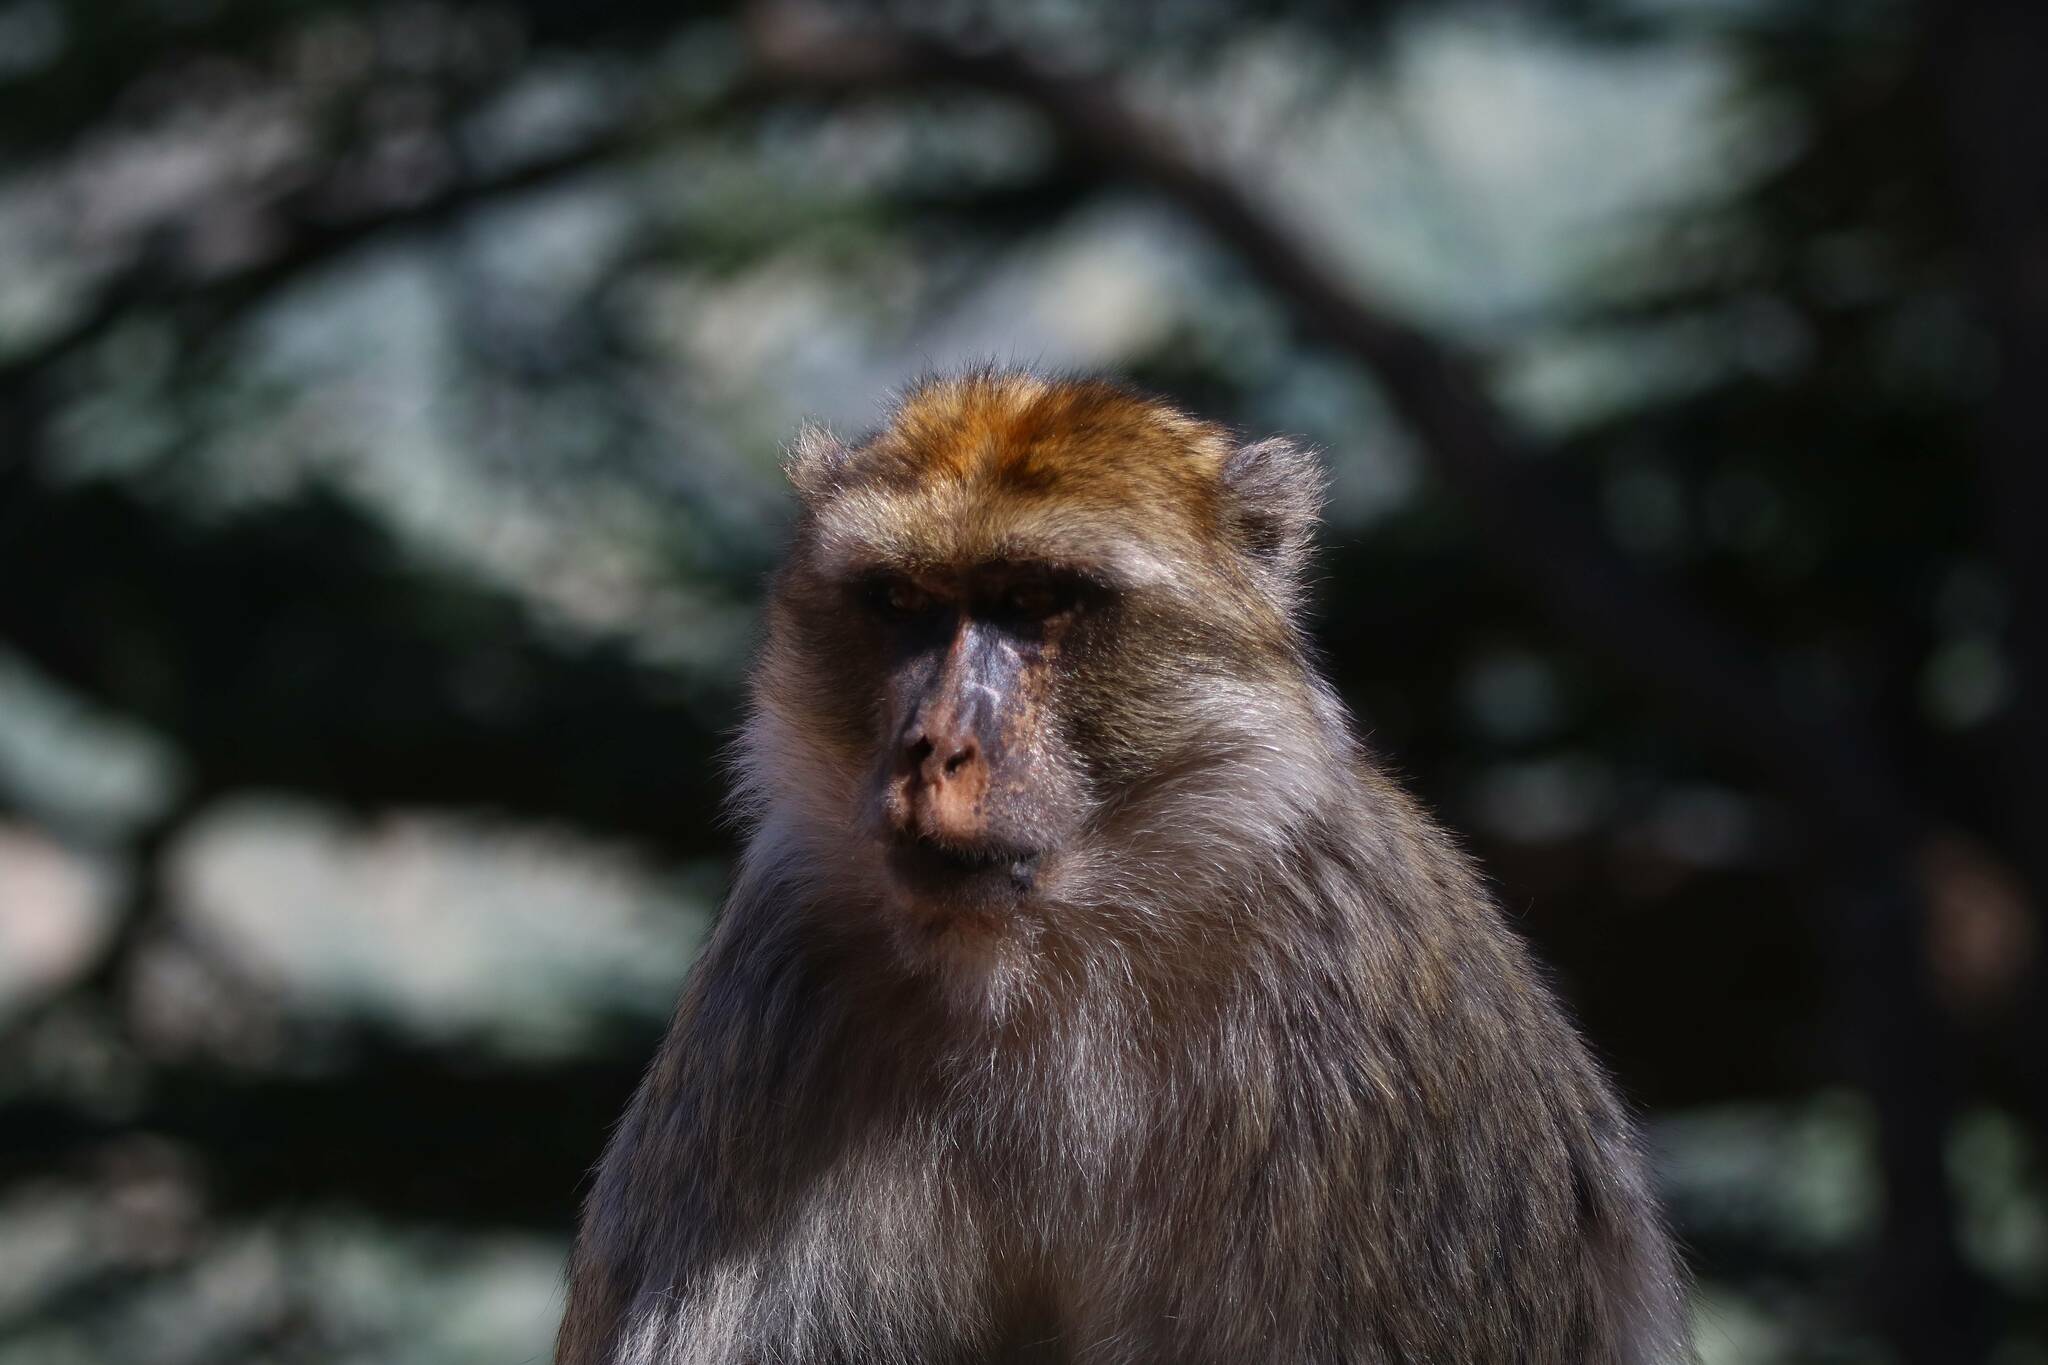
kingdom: Animalia
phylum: Chordata
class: Mammalia
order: Primates
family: Cercopithecidae
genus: Macaca
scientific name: Macaca sylvanus
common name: Barbary macaque
